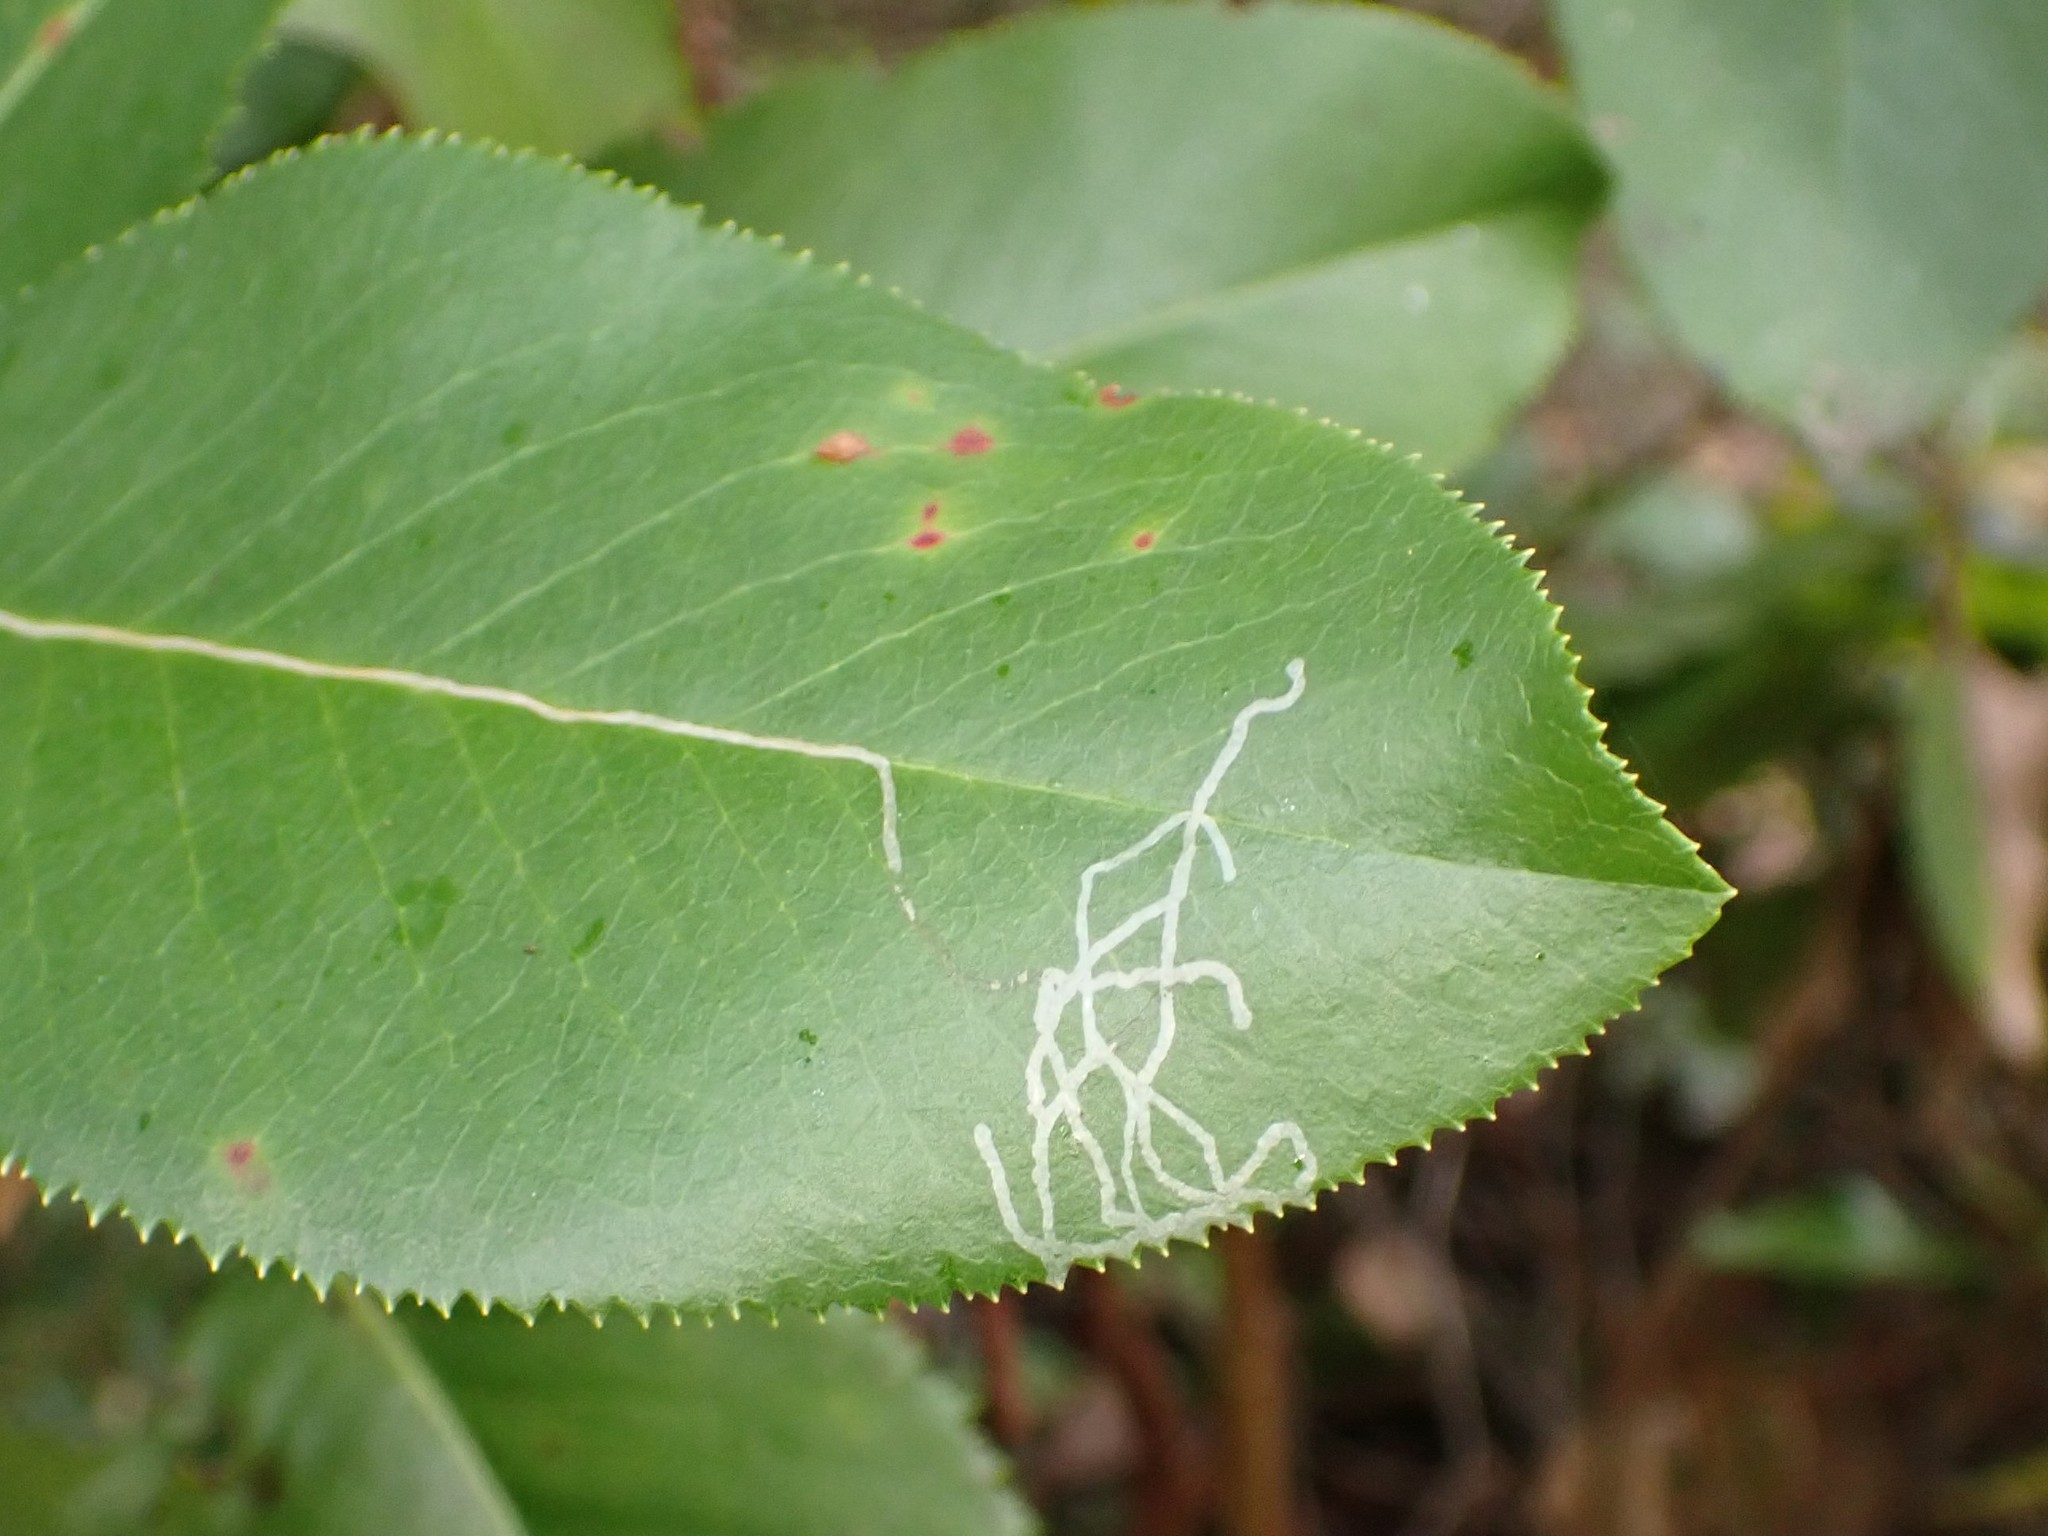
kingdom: Animalia
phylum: Arthropoda
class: Insecta
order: Lepidoptera
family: Gracillariidae
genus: Marmara
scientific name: Marmara arbutiella
